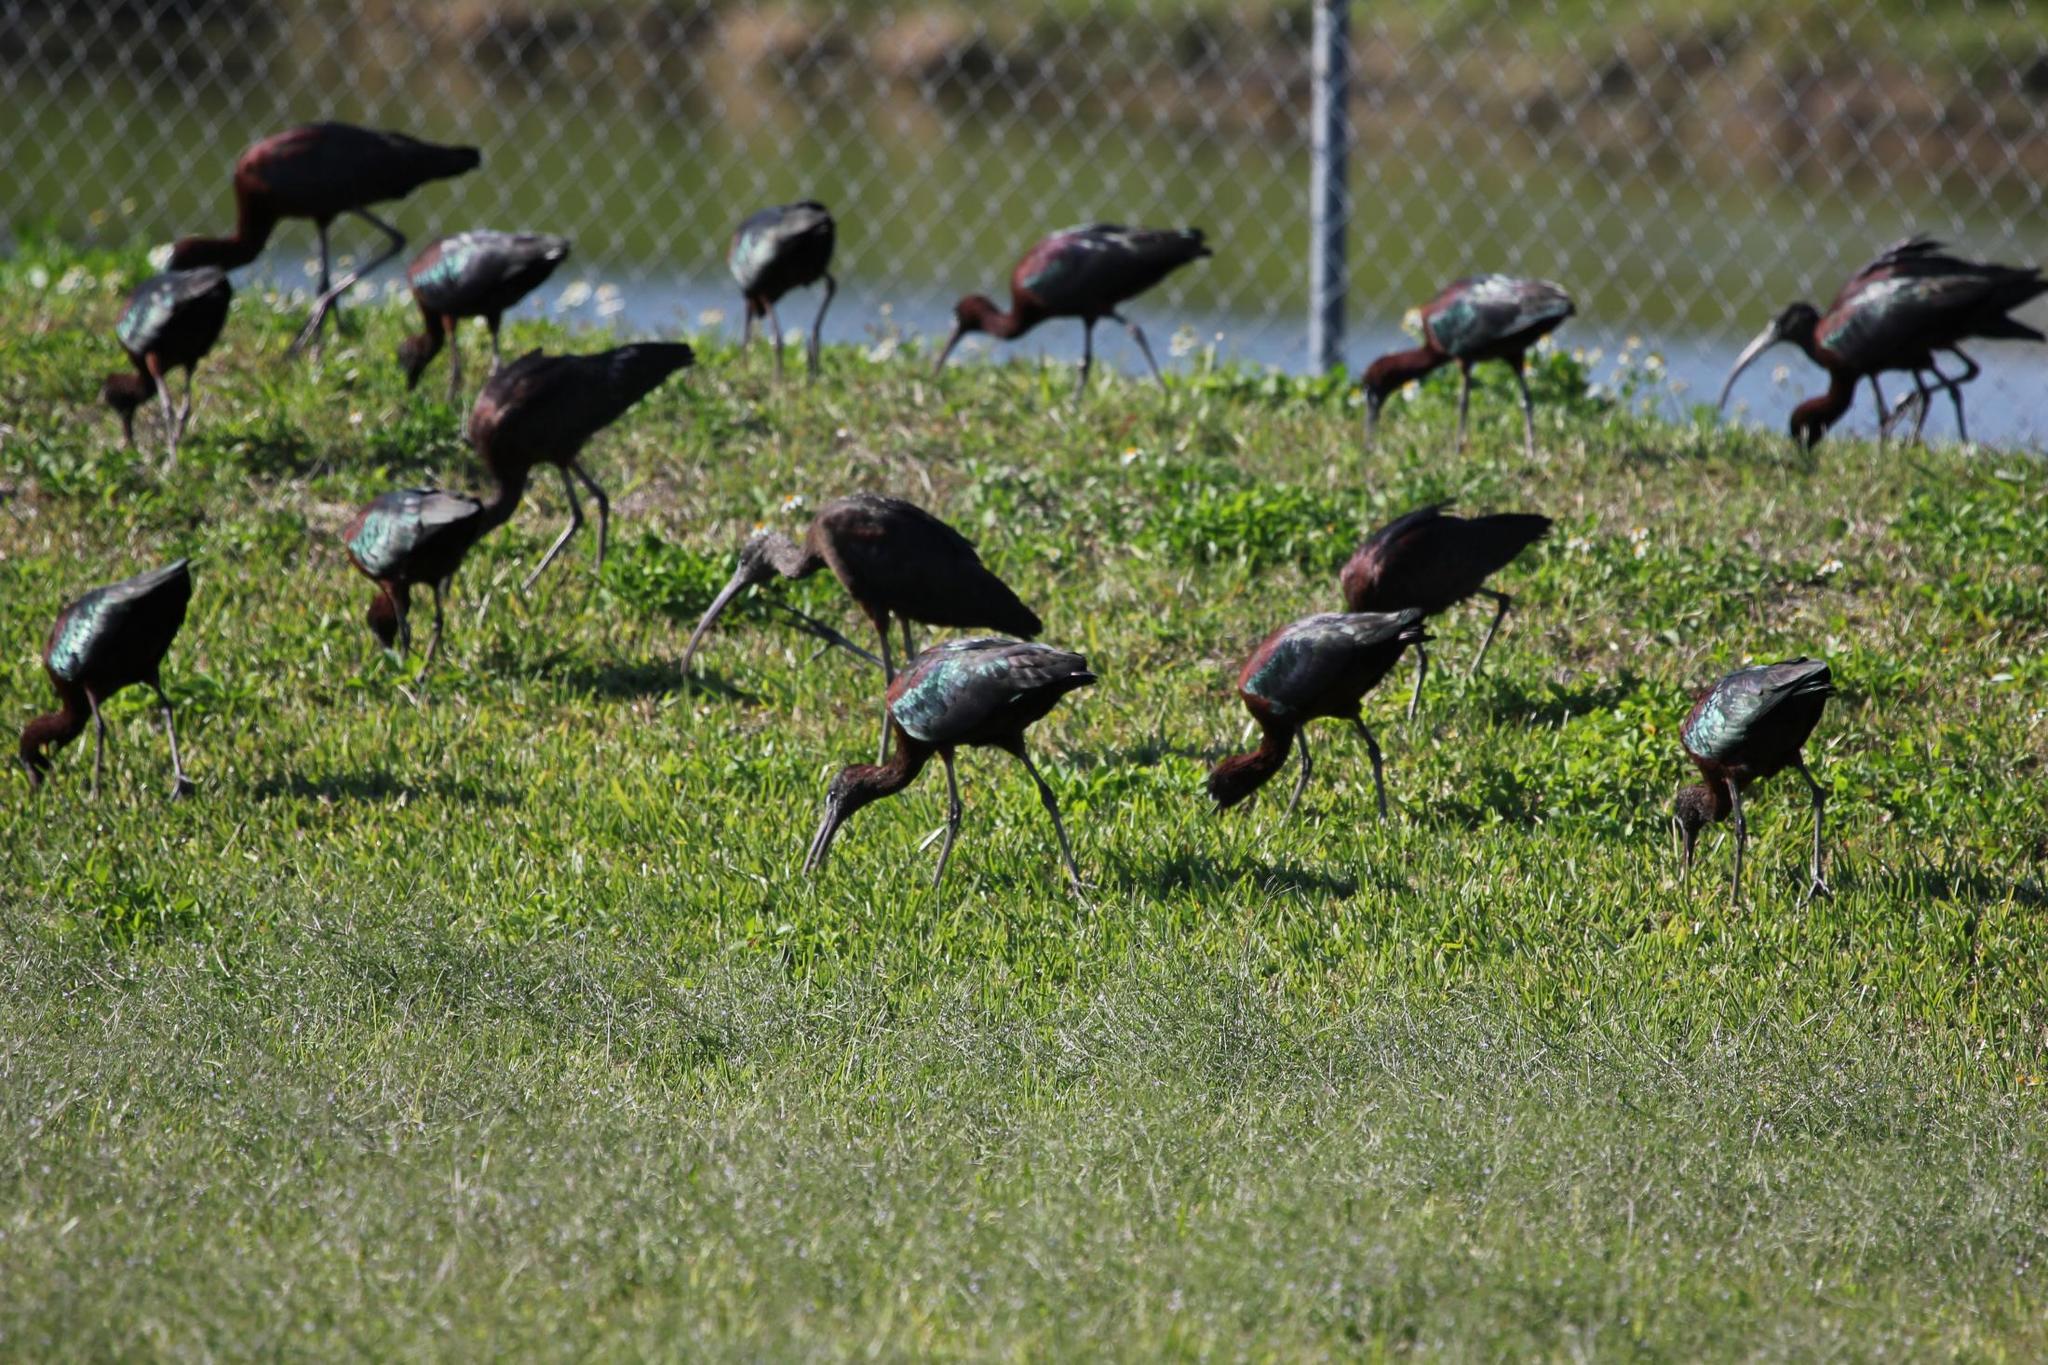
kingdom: Animalia
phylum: Chordata
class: Aves
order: Pelecaniformes
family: Threskiornithidae
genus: Plegadis
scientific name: Plegadis falcinellus
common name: Glossy ibis
